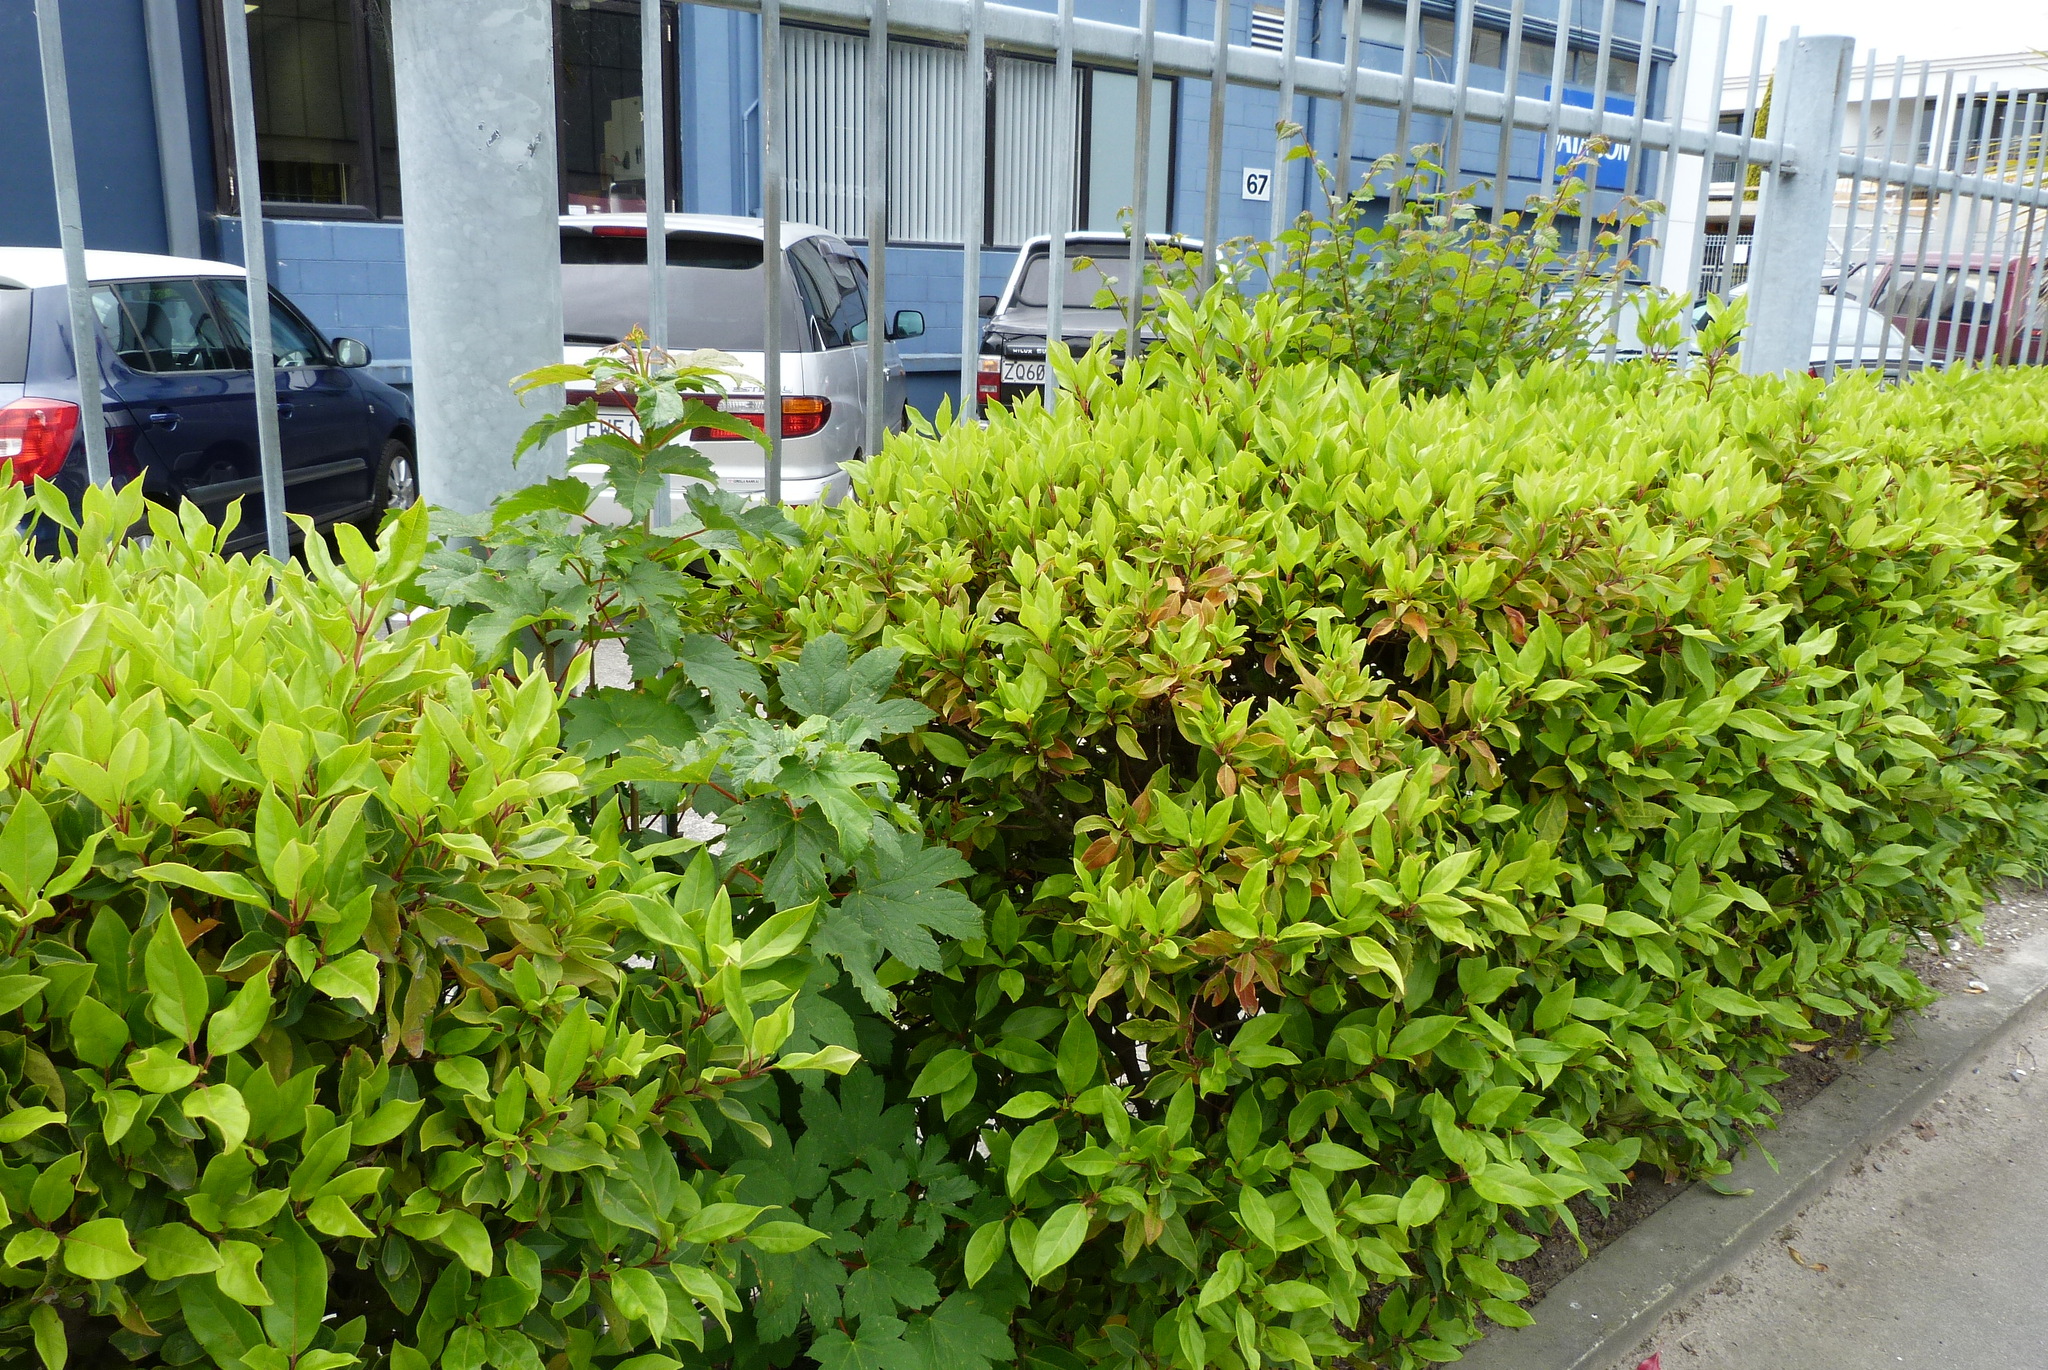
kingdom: Plantae
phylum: Tracheophyta
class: Magnoliopsida
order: Sapindales
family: Sapindaceae
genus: Acer
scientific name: Acer pseudoplatanus
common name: Sycamore
